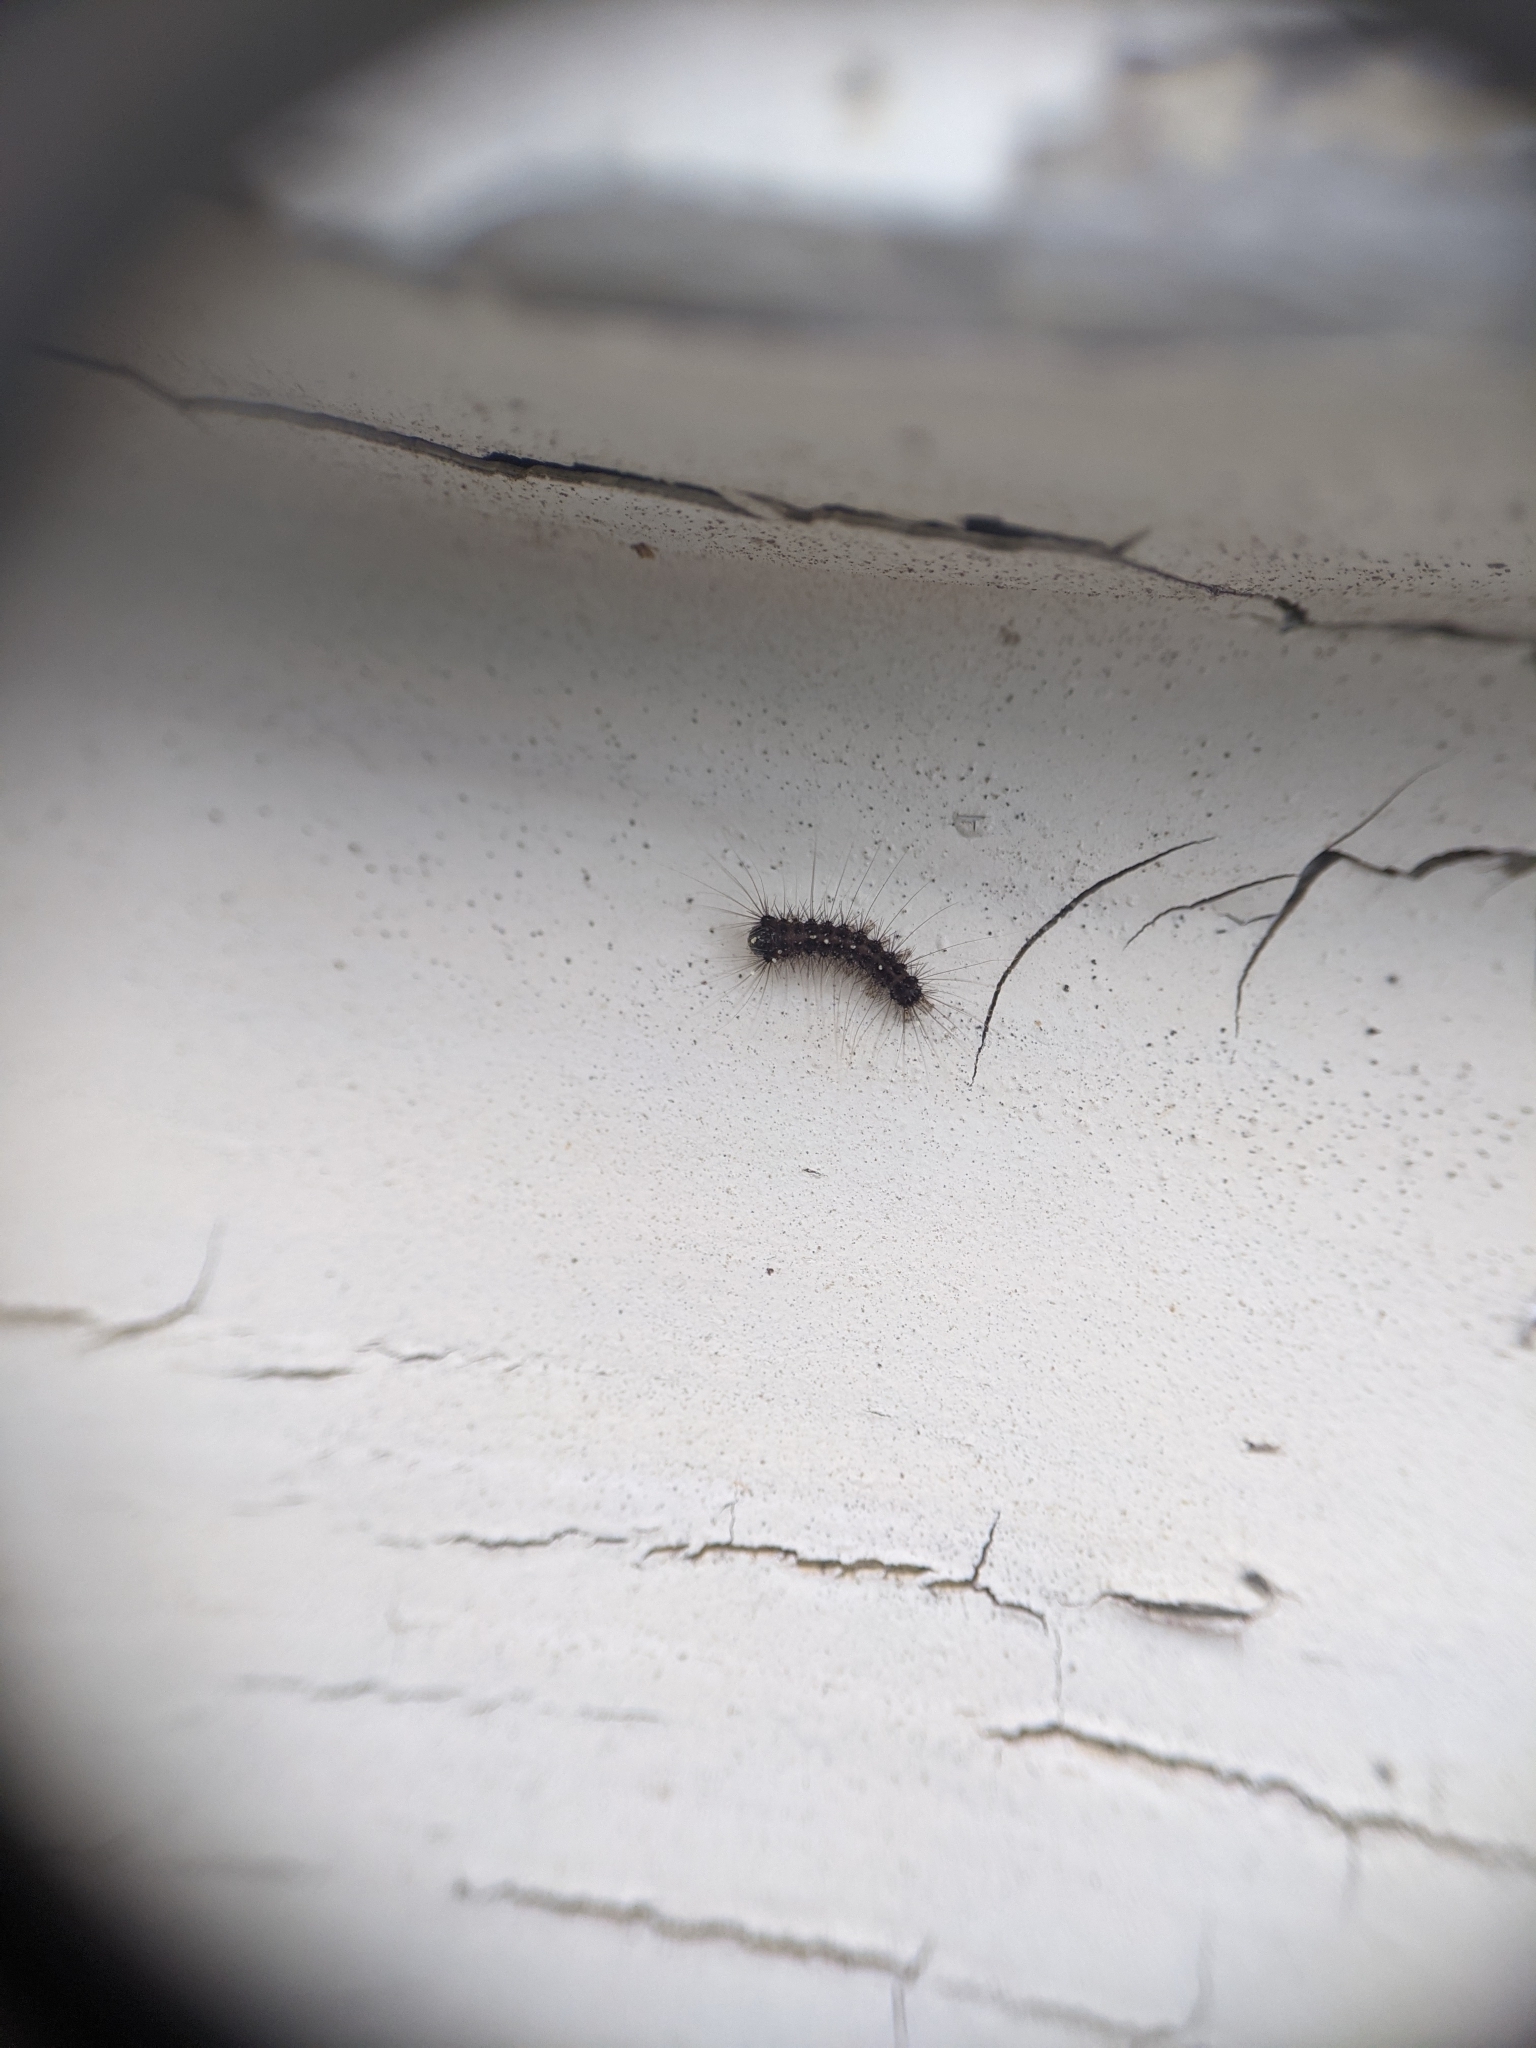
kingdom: Animalia
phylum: Arthropoda
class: Insecta
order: Lepidoptera
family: Erebidae
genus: Lymantria
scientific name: Lymantria dispar
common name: Gypsy moth
